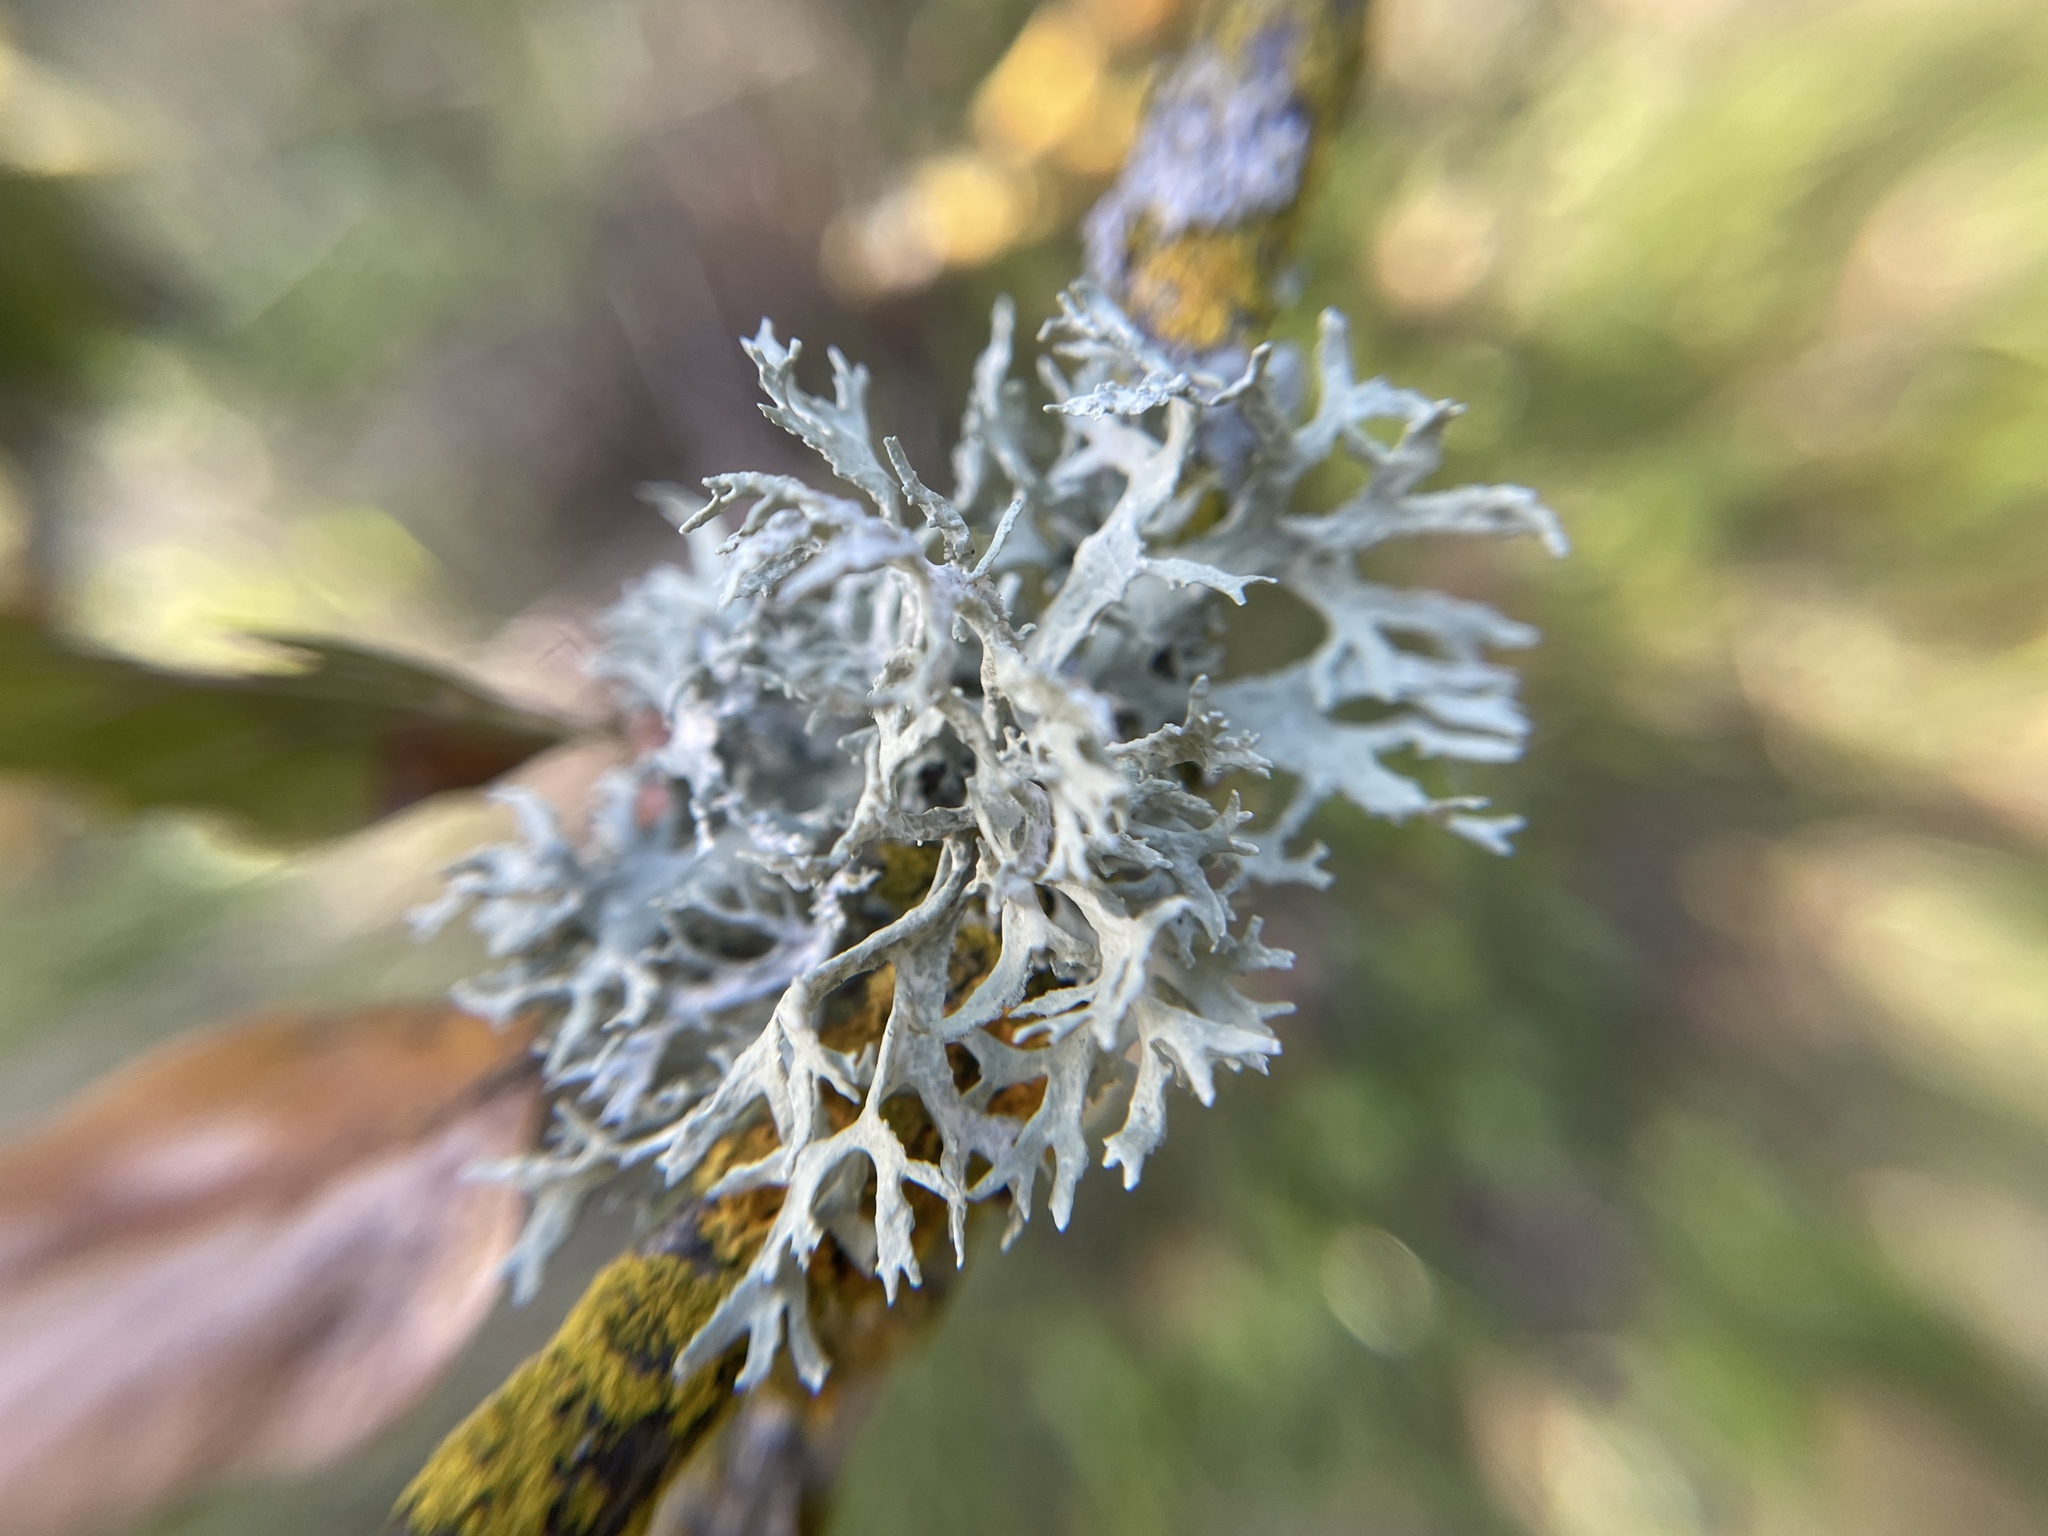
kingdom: Fungi
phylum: Ascomycota
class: Lecanoromycetes
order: Lecanorales
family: Parmeliaceae
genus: Evernia
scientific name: Evernia prunastri
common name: Oak moss
